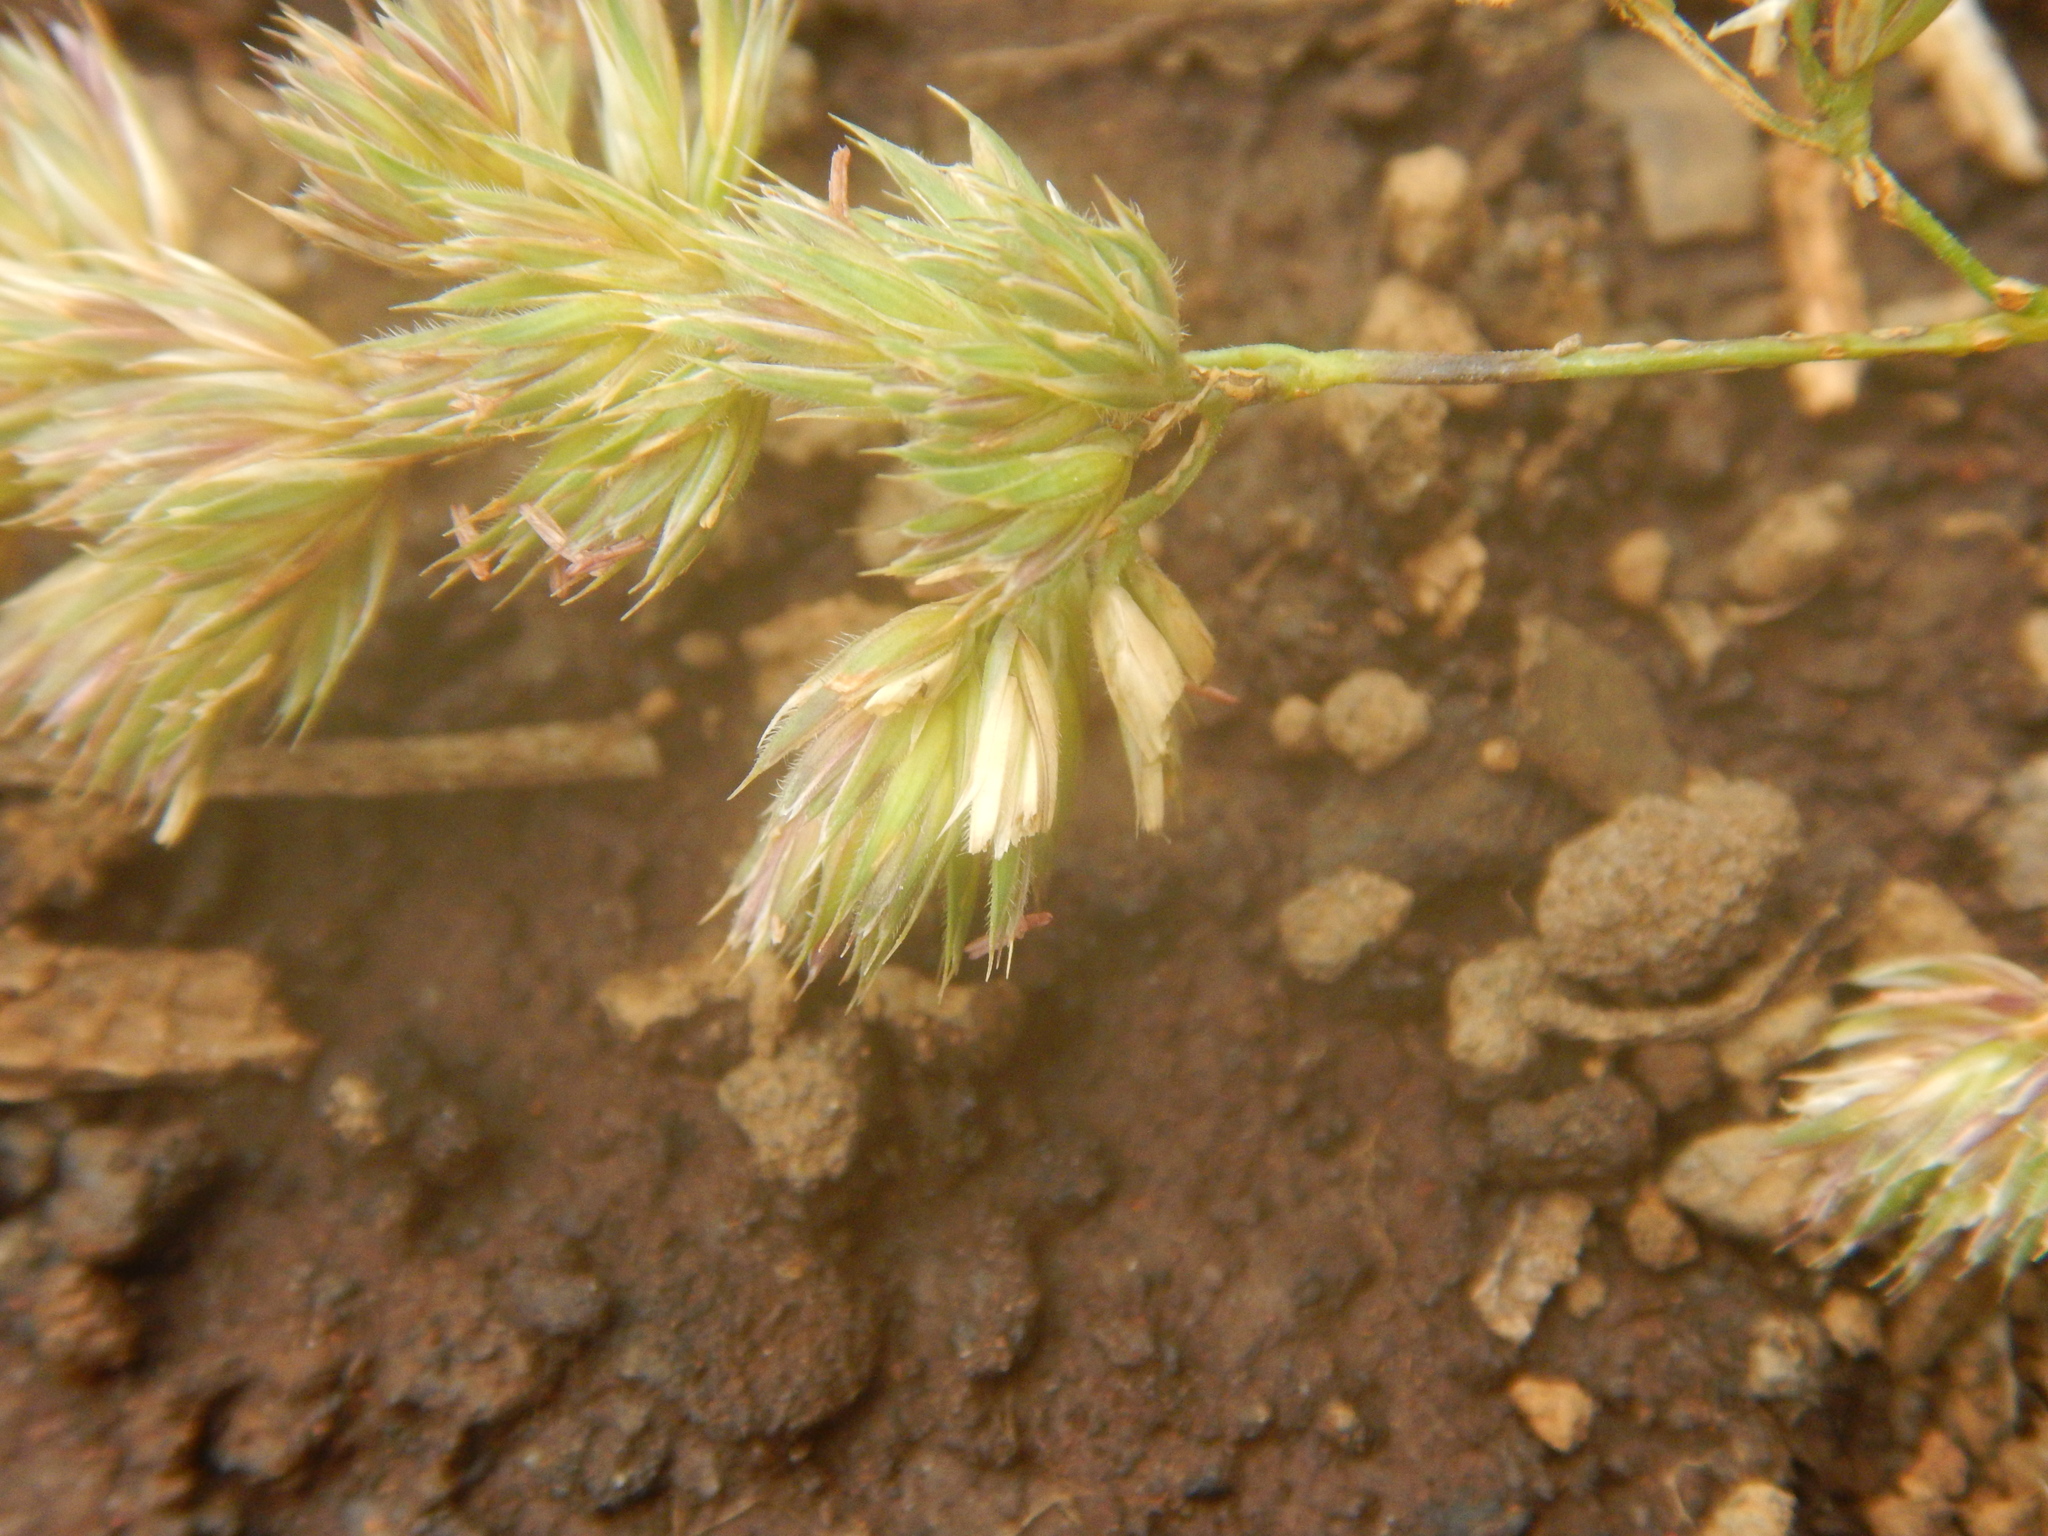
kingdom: Plantae
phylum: Tracheophyta
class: Liliopsida
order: Poales
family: Poaceae
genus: Dactylis
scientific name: Dactylis glomerata
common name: Orchardgrass
